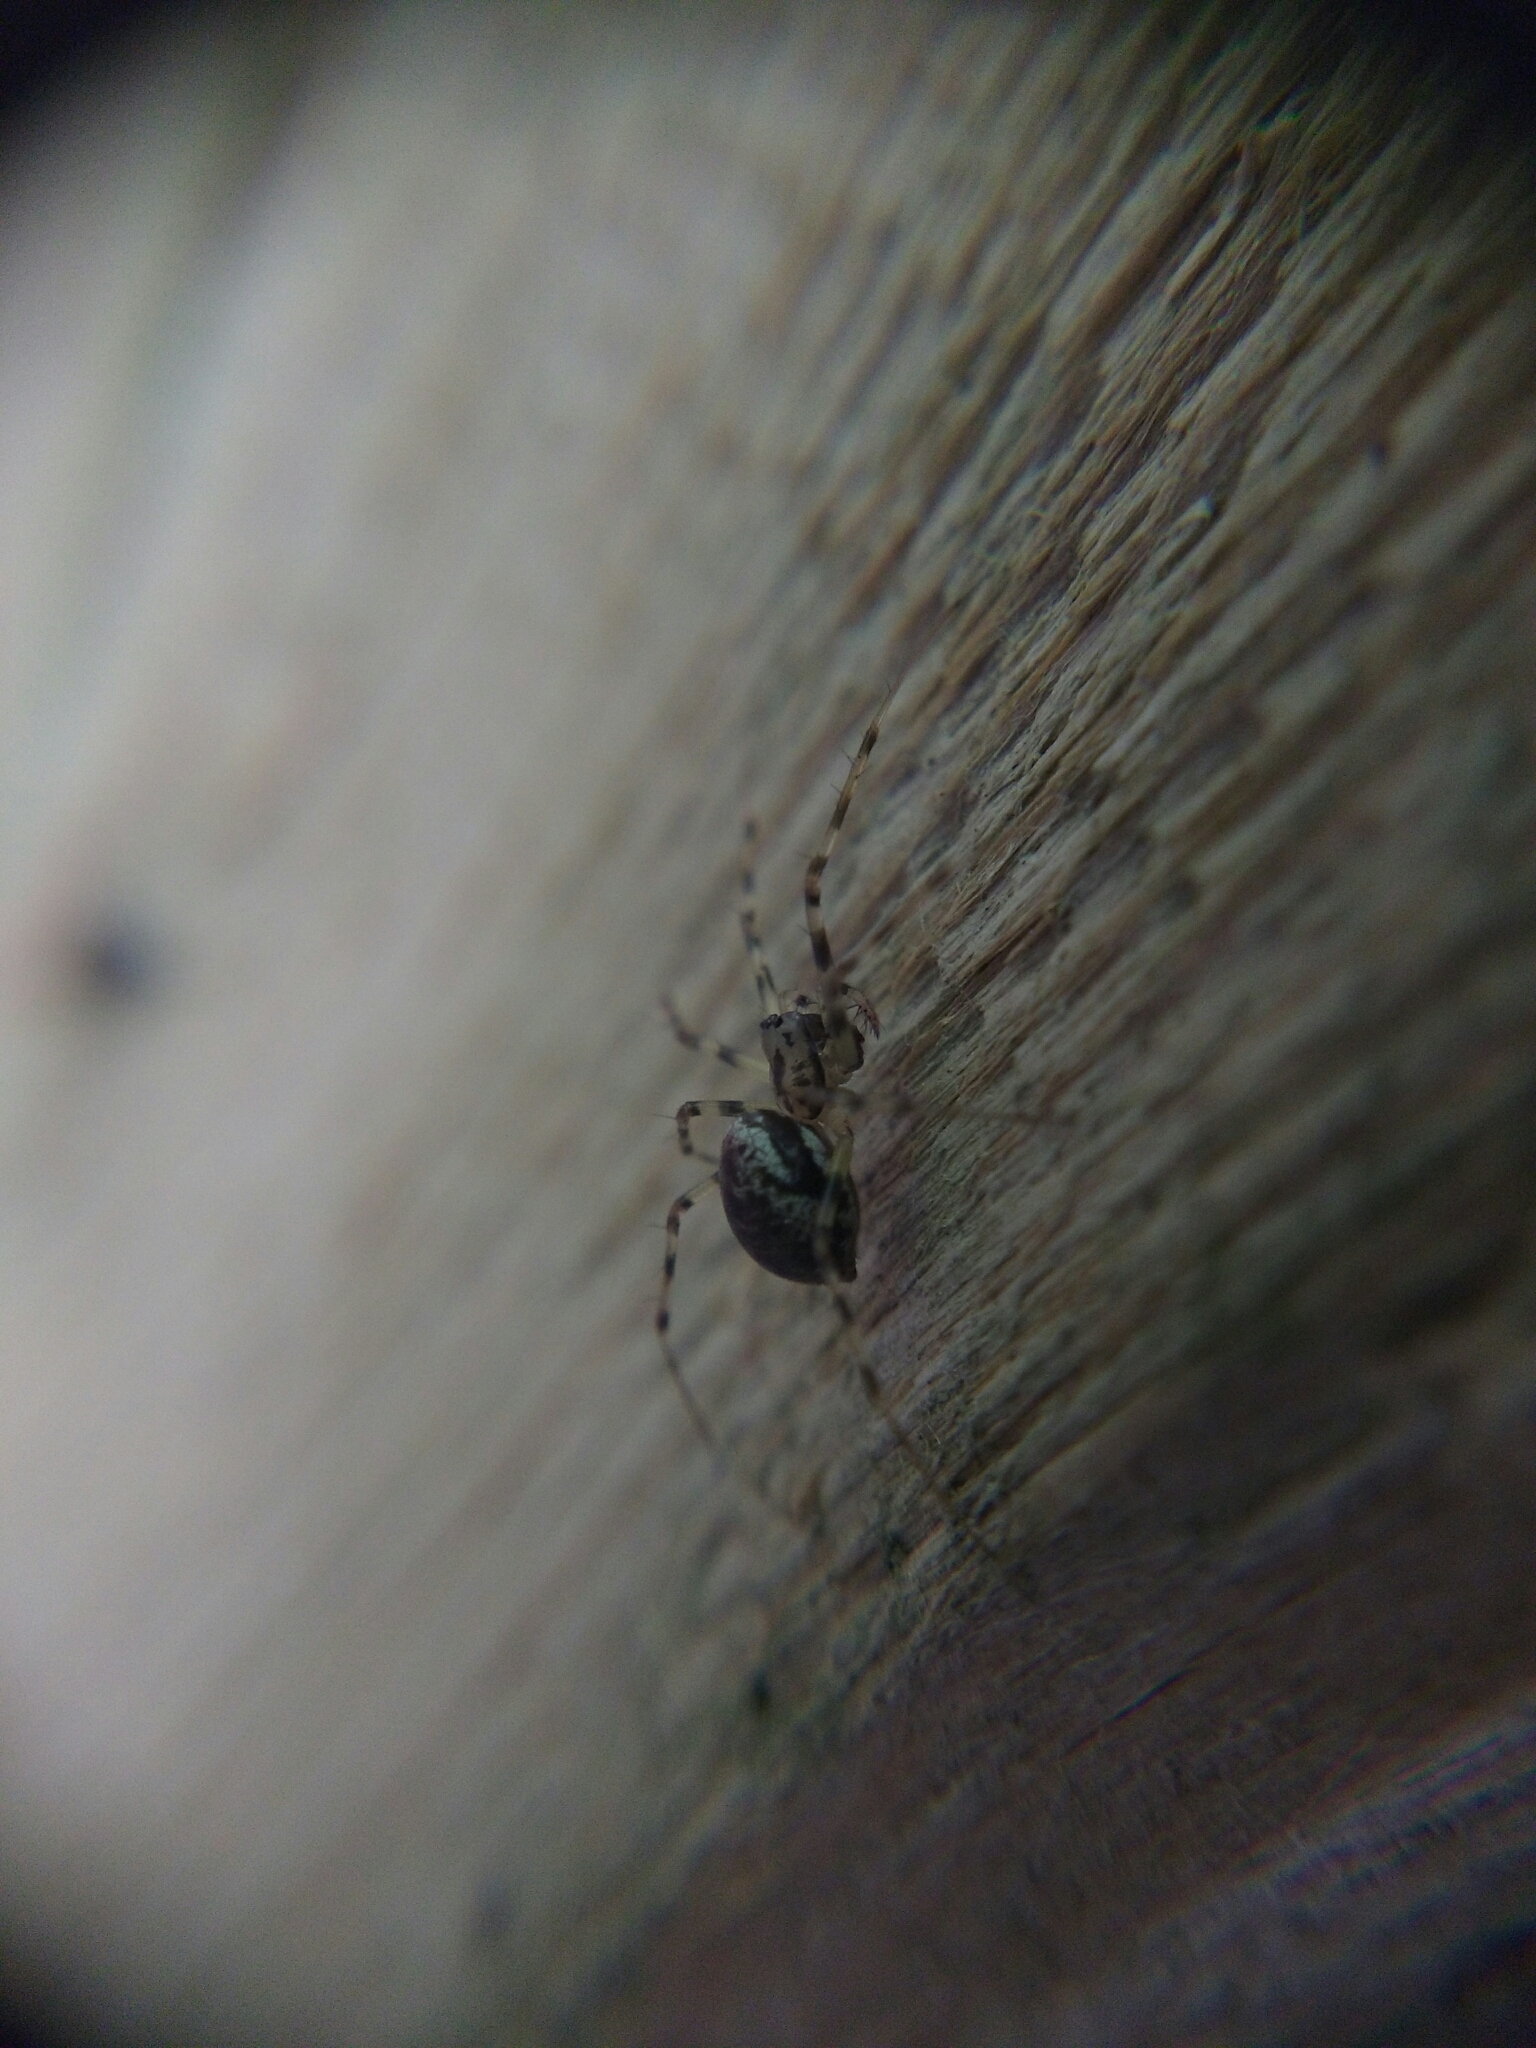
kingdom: Animalia
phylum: Arthropoda
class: Arachnida
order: Araneae
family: Linyphiidae
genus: Drapetisca
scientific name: Drapetisca socialis
